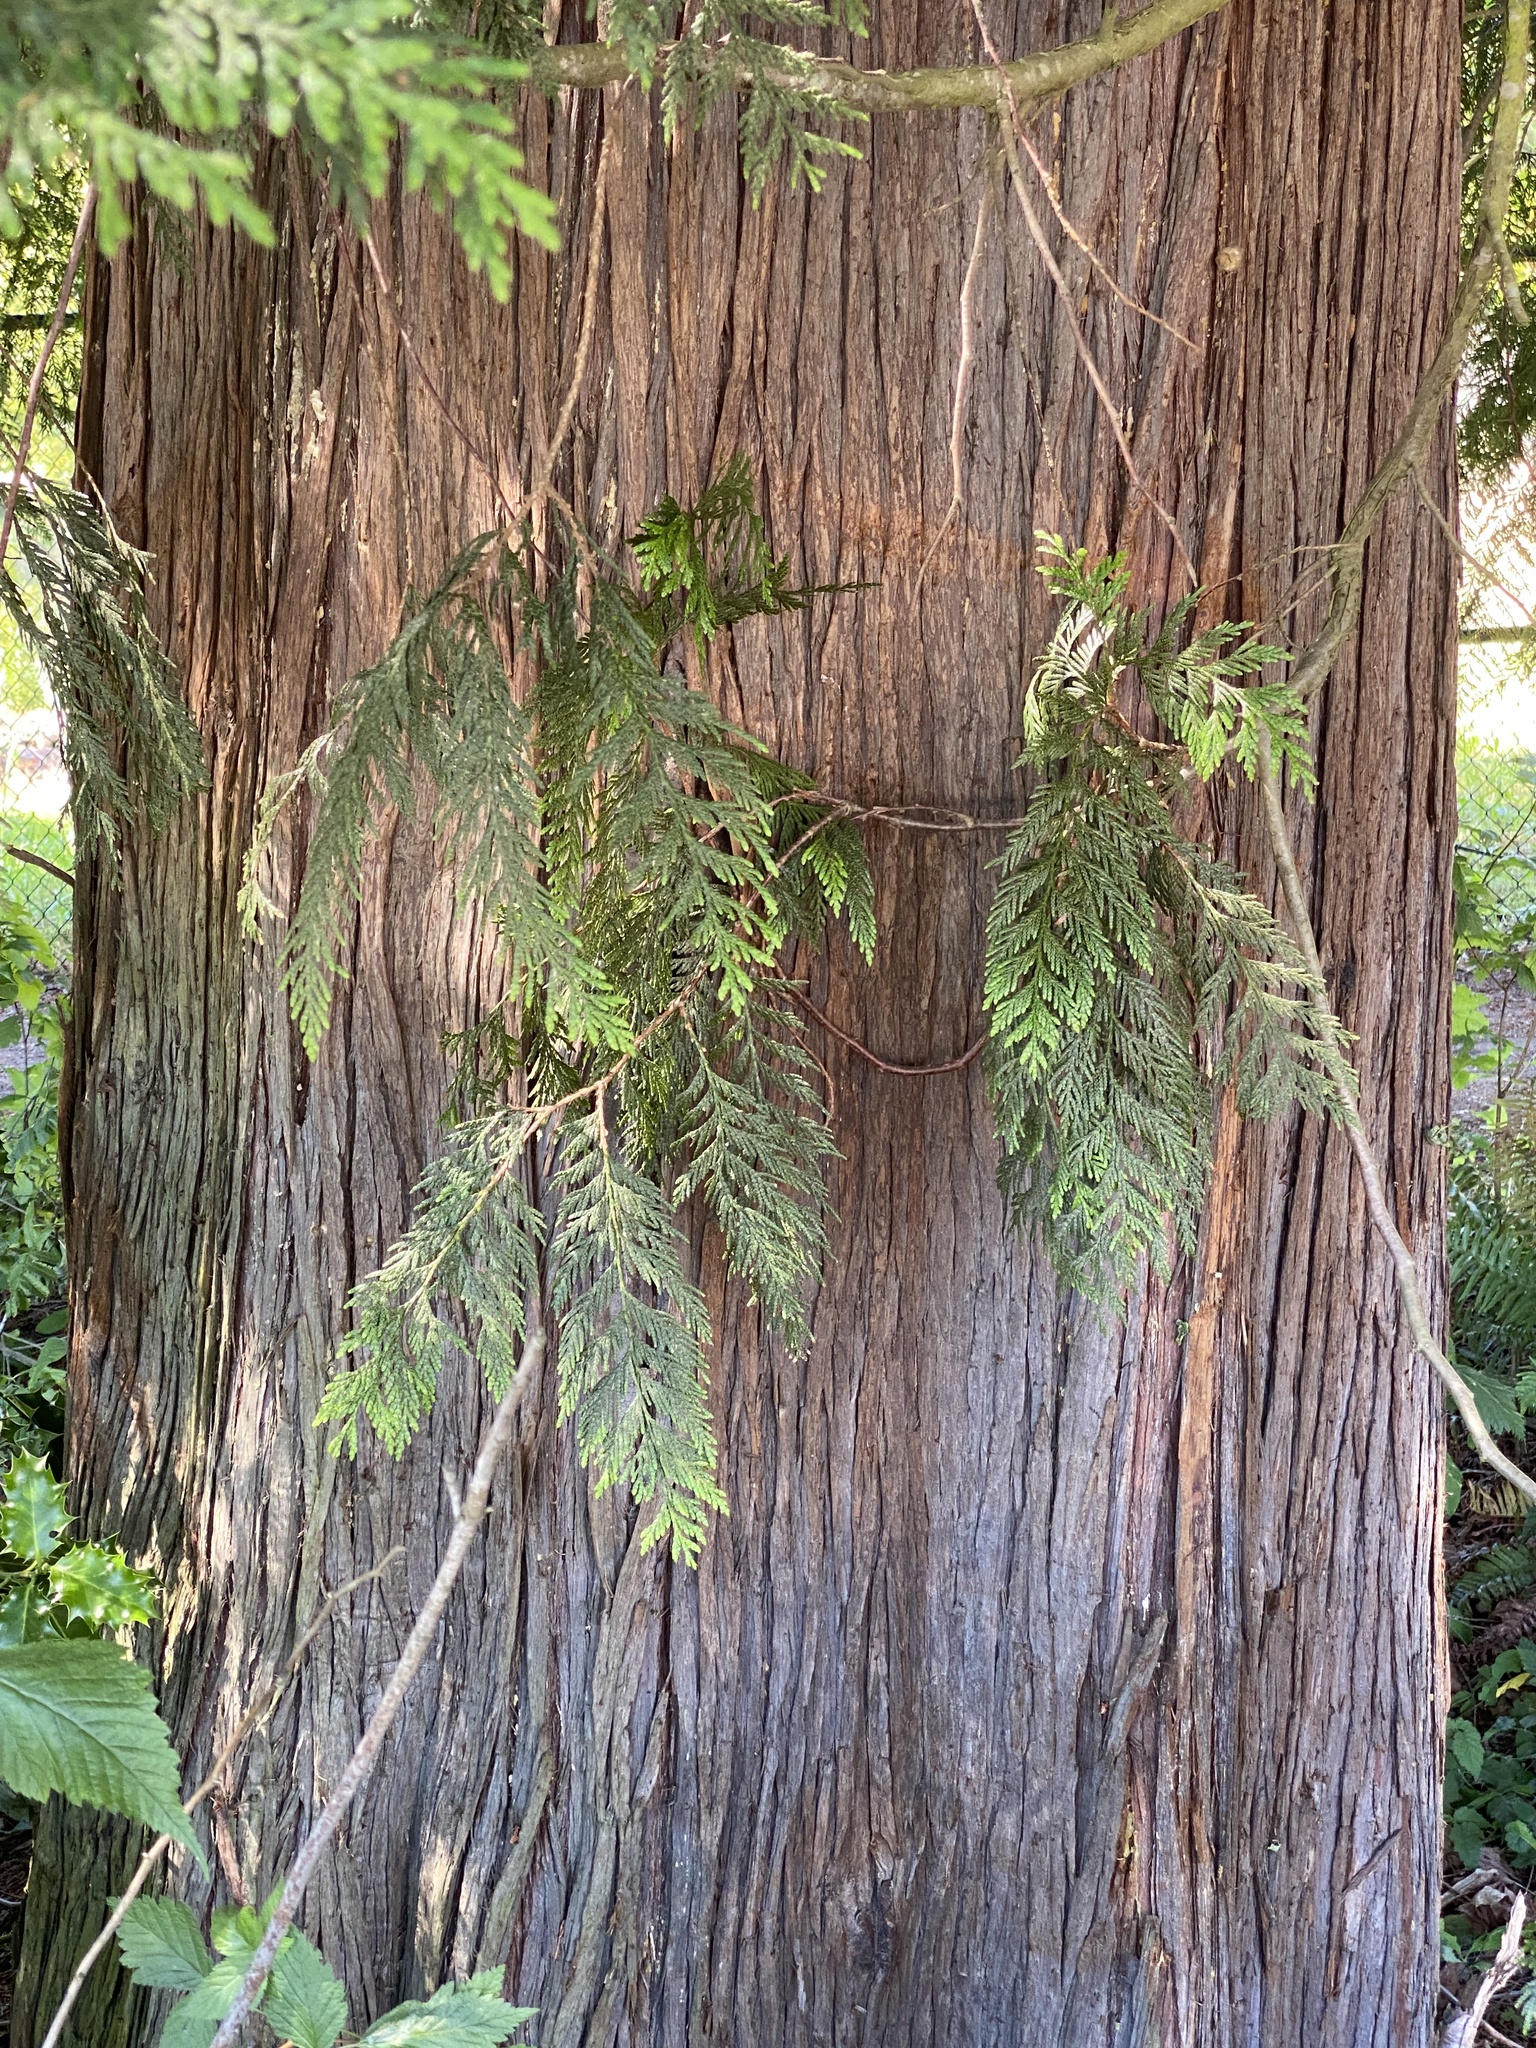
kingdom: Plantae
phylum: Tracheophyta
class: Pinopsida
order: Pinales
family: Cupressaceae
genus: Thuja
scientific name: Thuja plicata
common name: Western red-cedar
